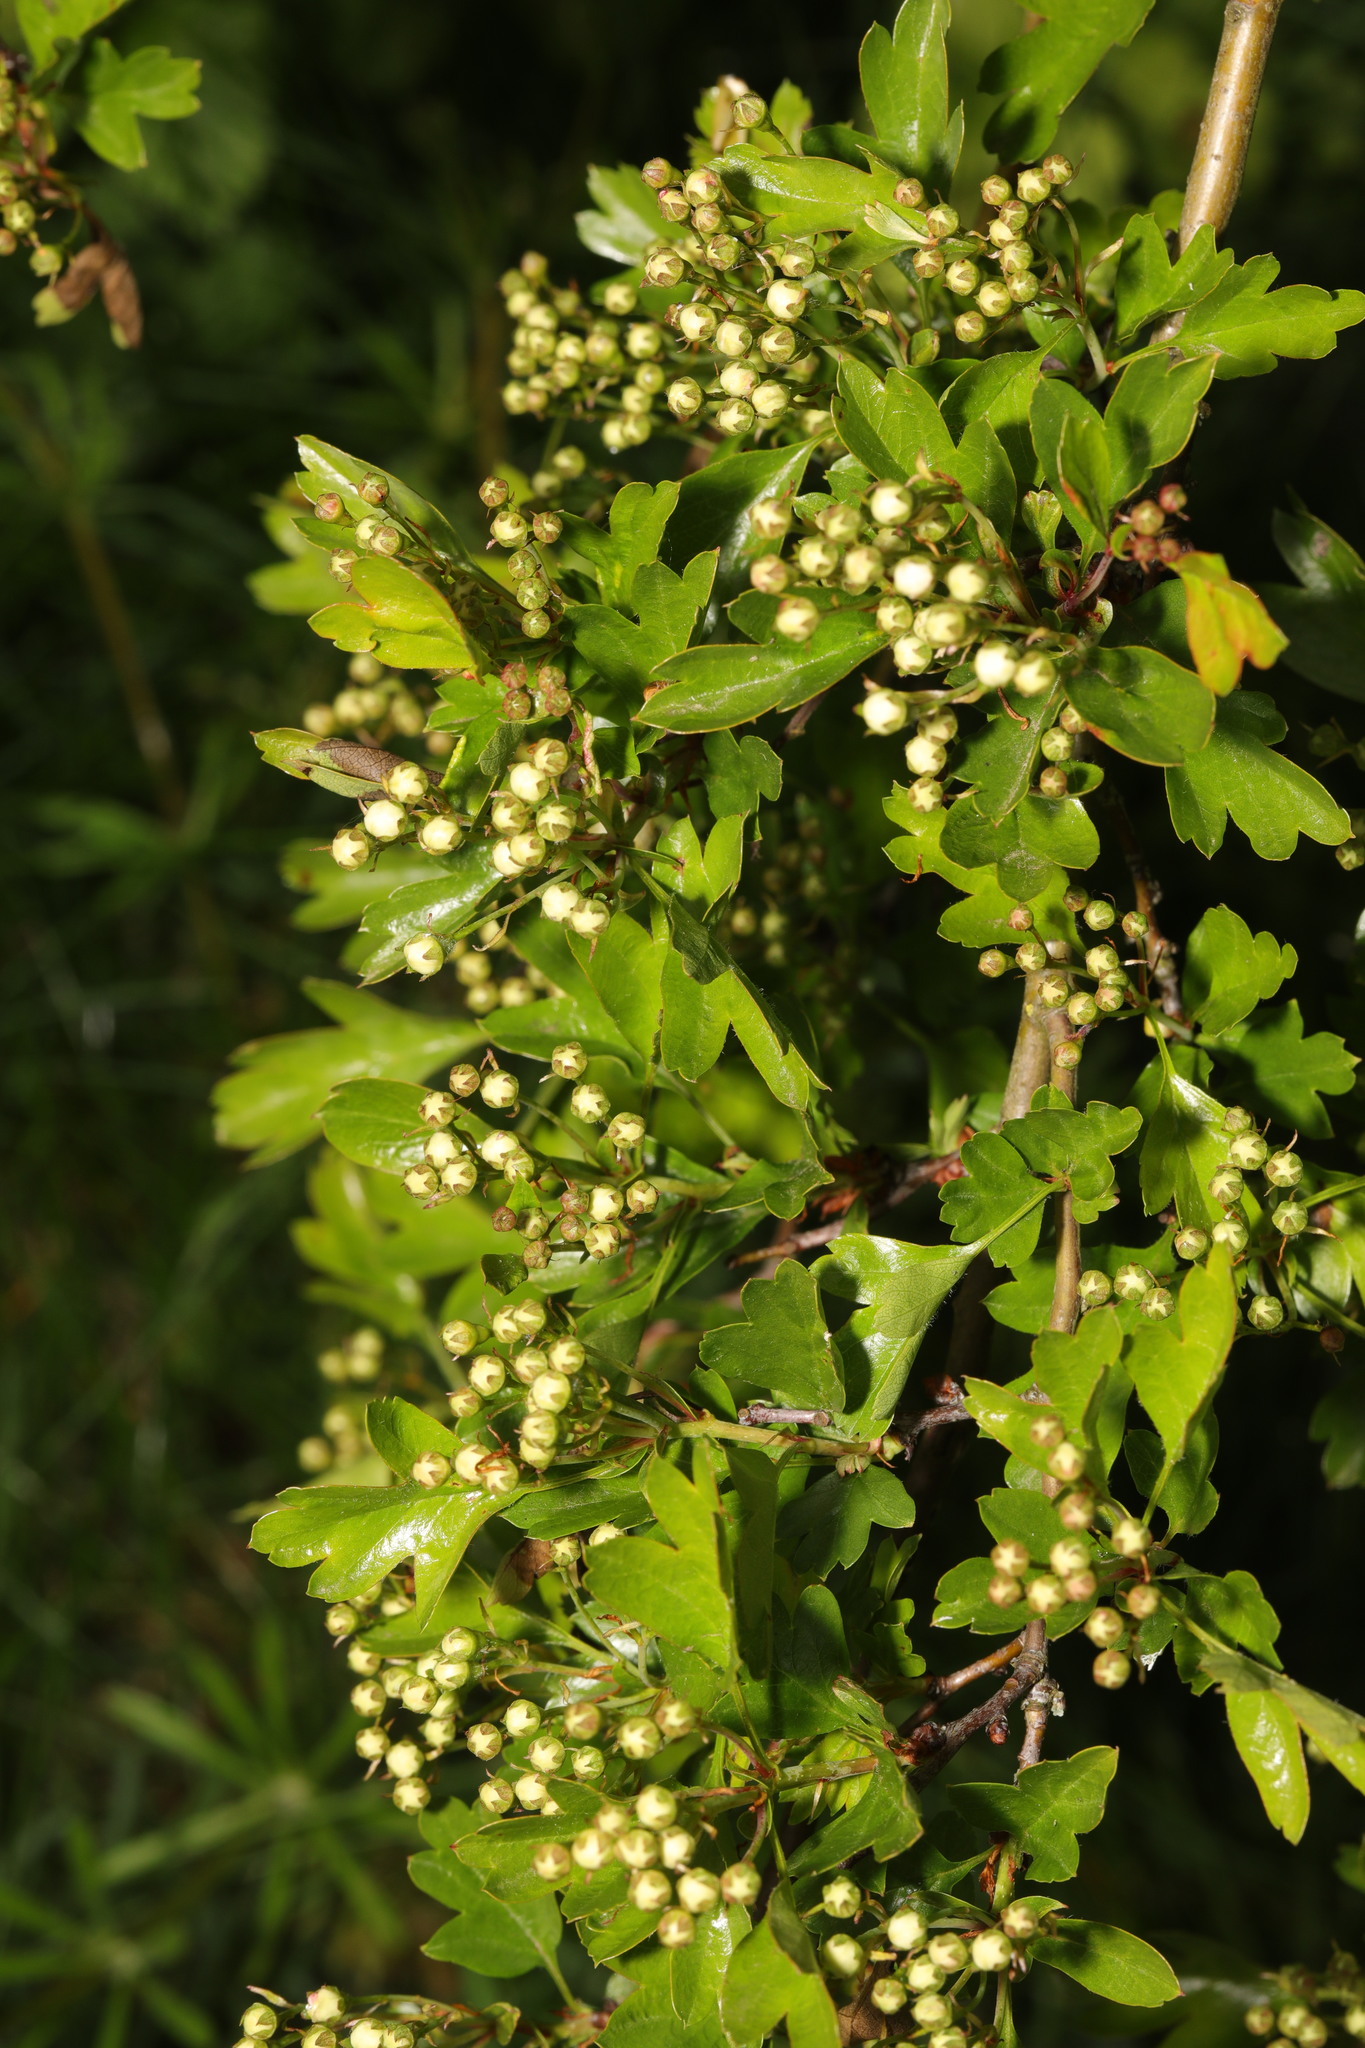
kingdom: Plantae
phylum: Tracheophyta
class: Magnoliopsida
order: Rosales
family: Rosaceae
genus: Crataegus
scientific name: Crataegus monogyna
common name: Hawthorn
